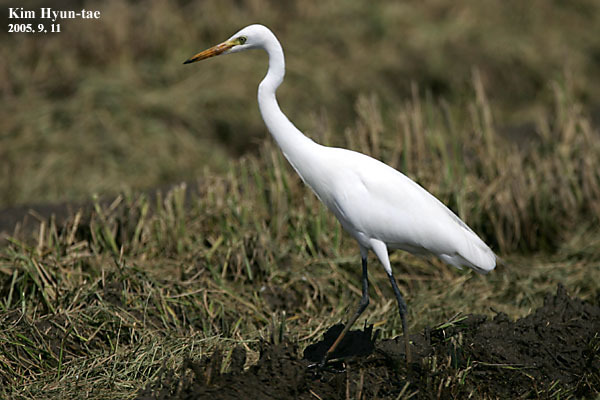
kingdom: Animalia
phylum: Chordata
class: Aves
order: Pelecaniformes
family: Ardeidae
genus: Egretta
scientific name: Egretta intermedia
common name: Intermediate egret
